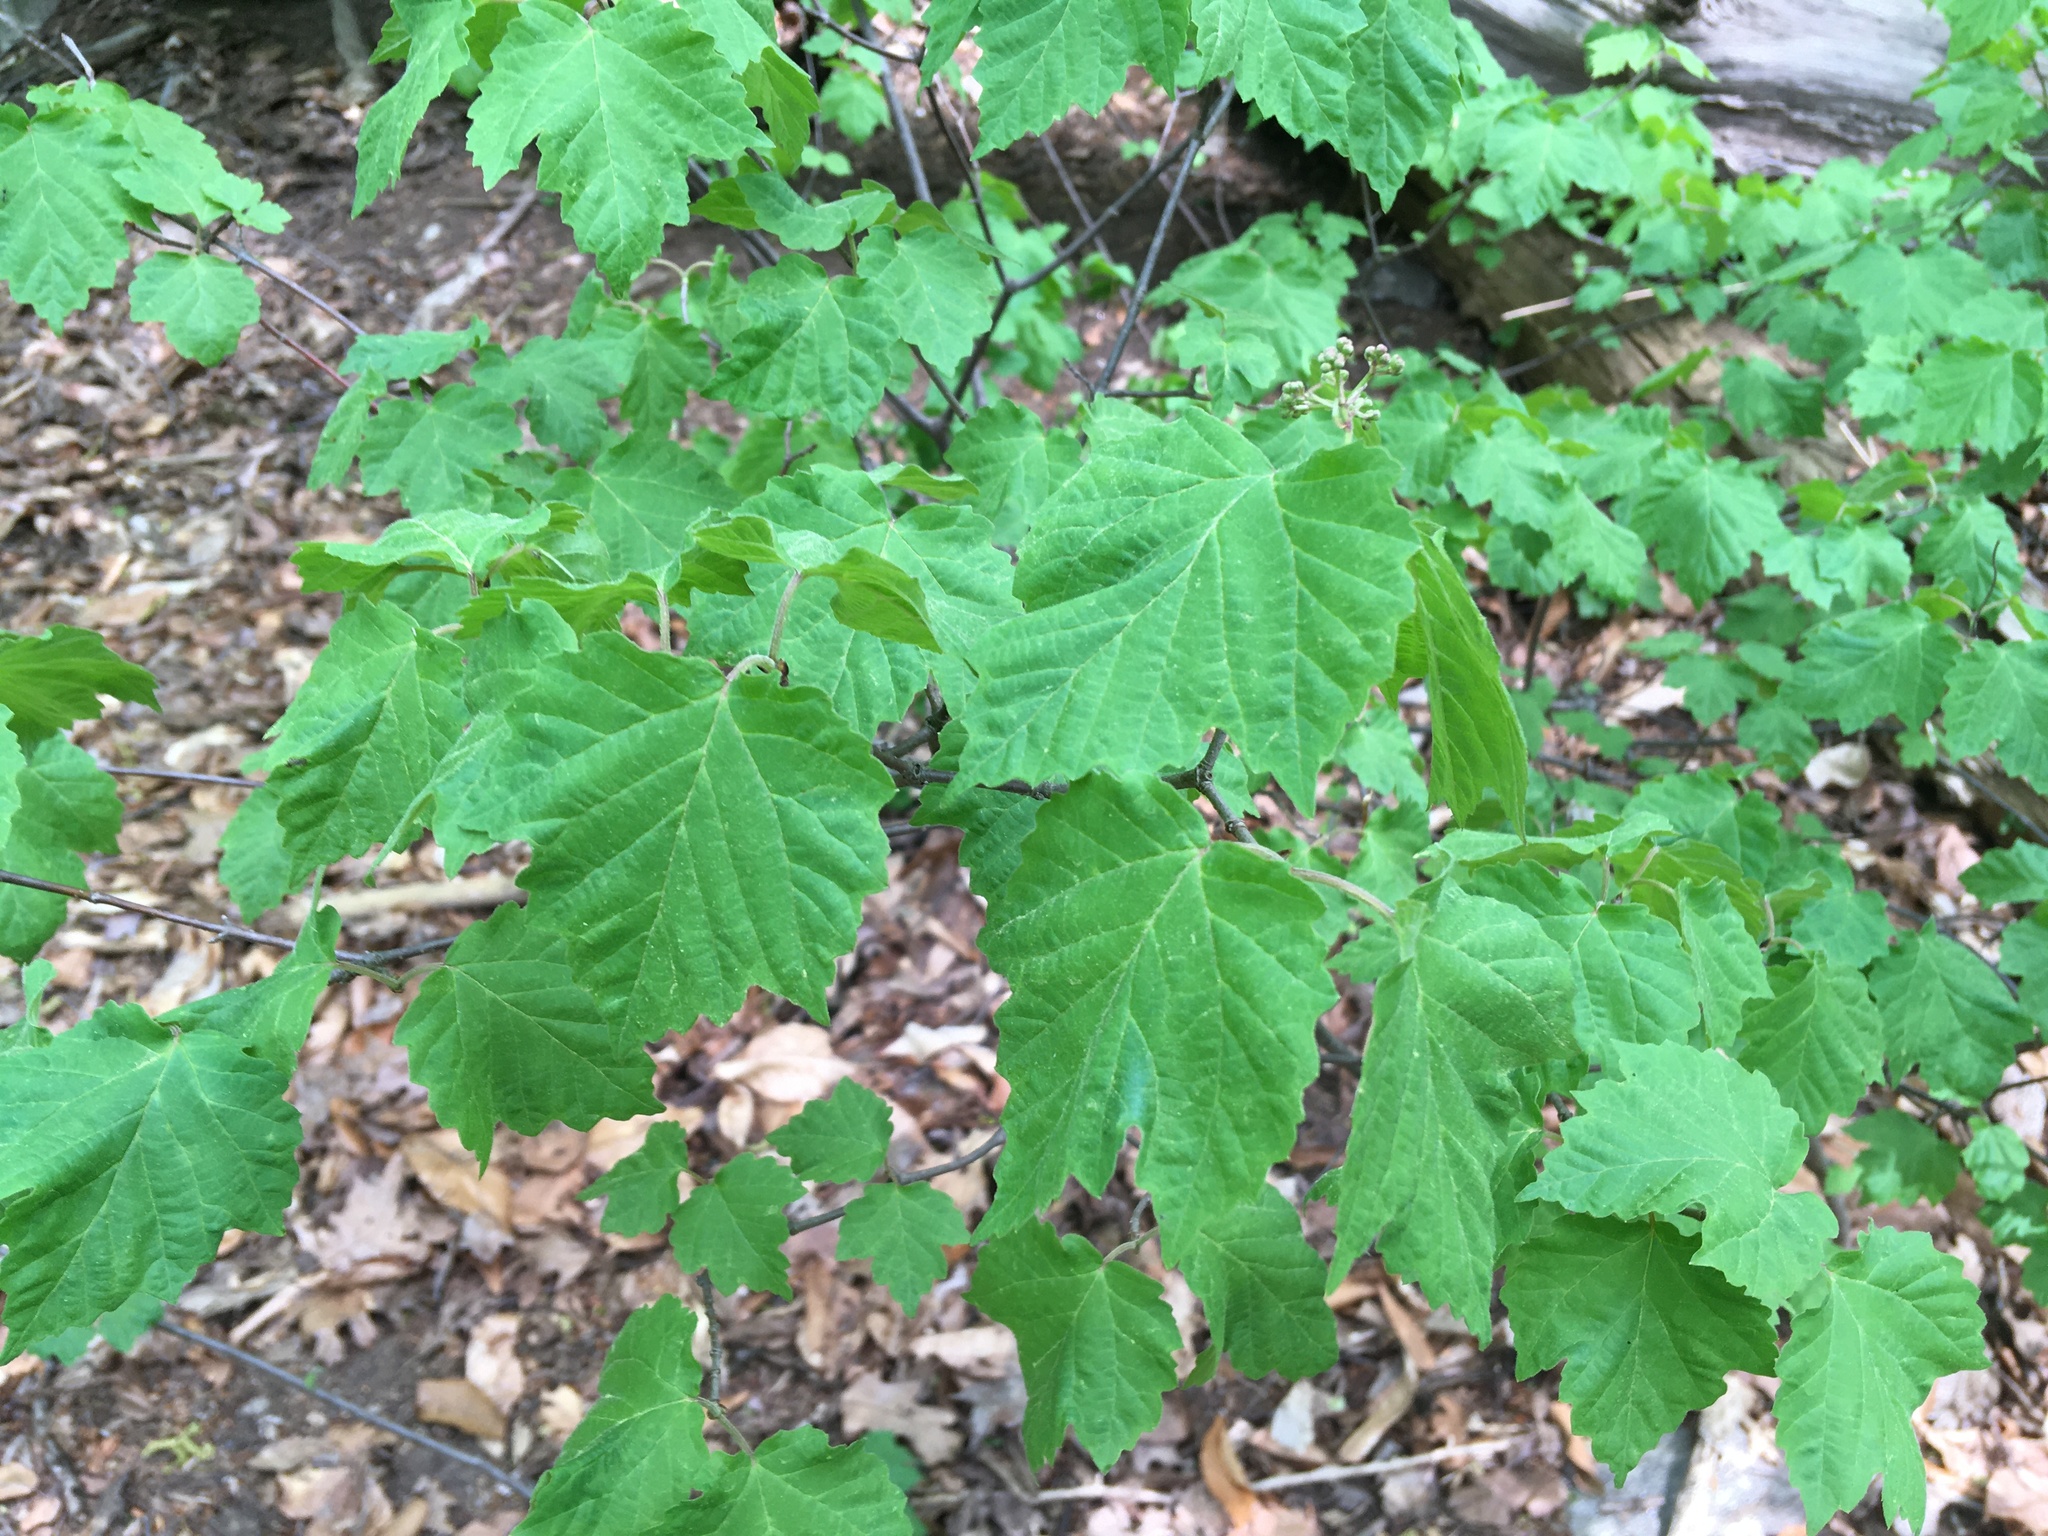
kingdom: Plantae
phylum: Tracheophyta
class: Magnoliopsida
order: Dipsacales
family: Viburnaceae
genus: Viburnum
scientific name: Viburnum acerifolium
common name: Dockmackie
